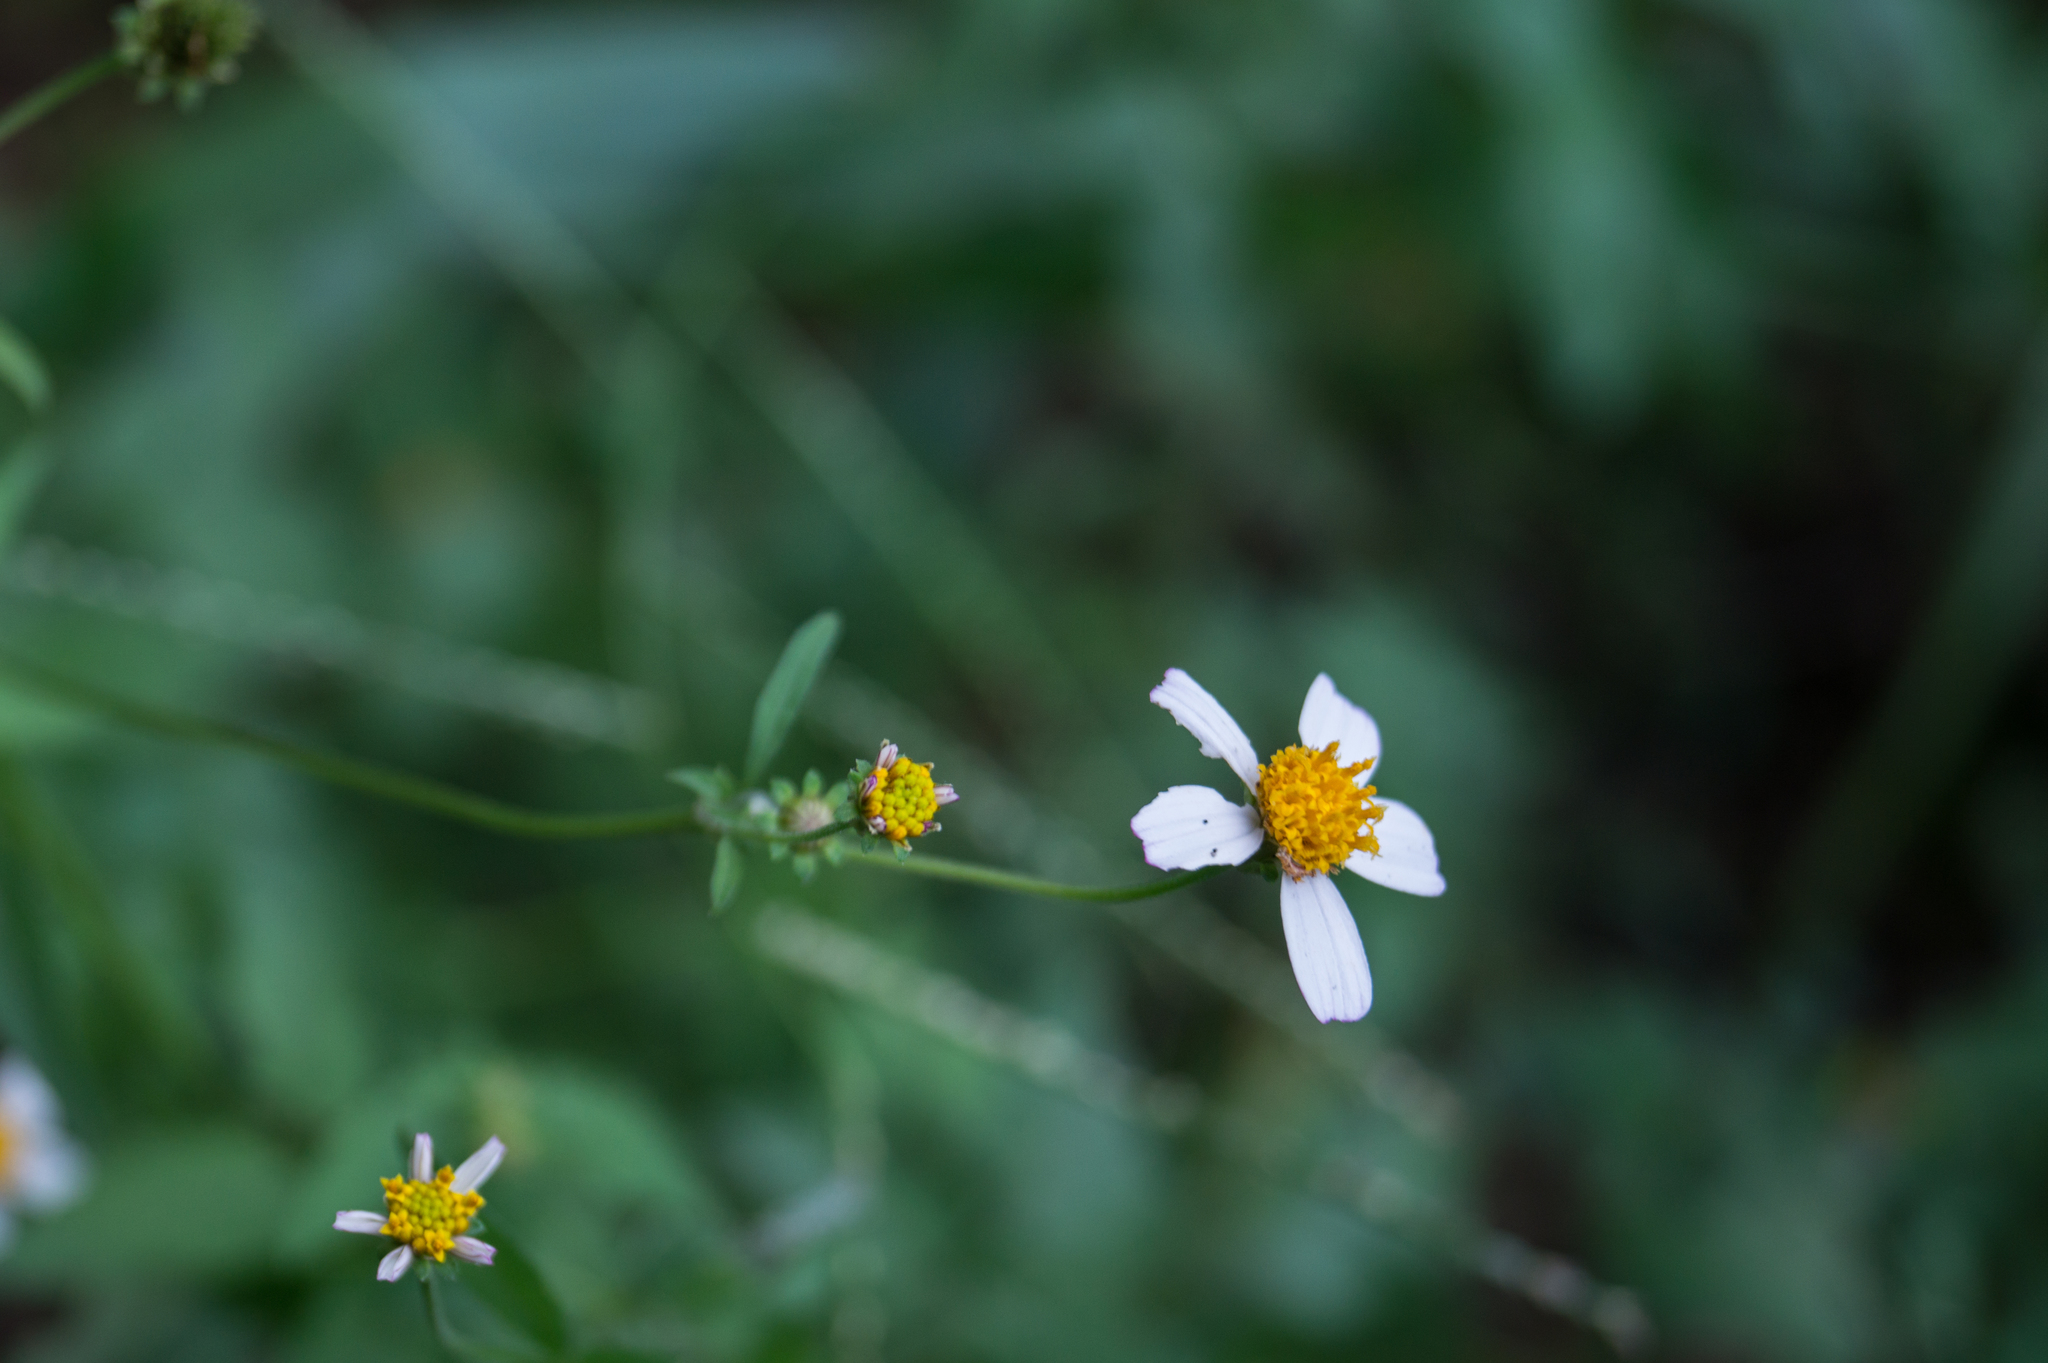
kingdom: Plantae
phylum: Tracheophyta
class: Magnoliopsida
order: Asterales
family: Asteraceae
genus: Bidens
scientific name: Bidens alba
